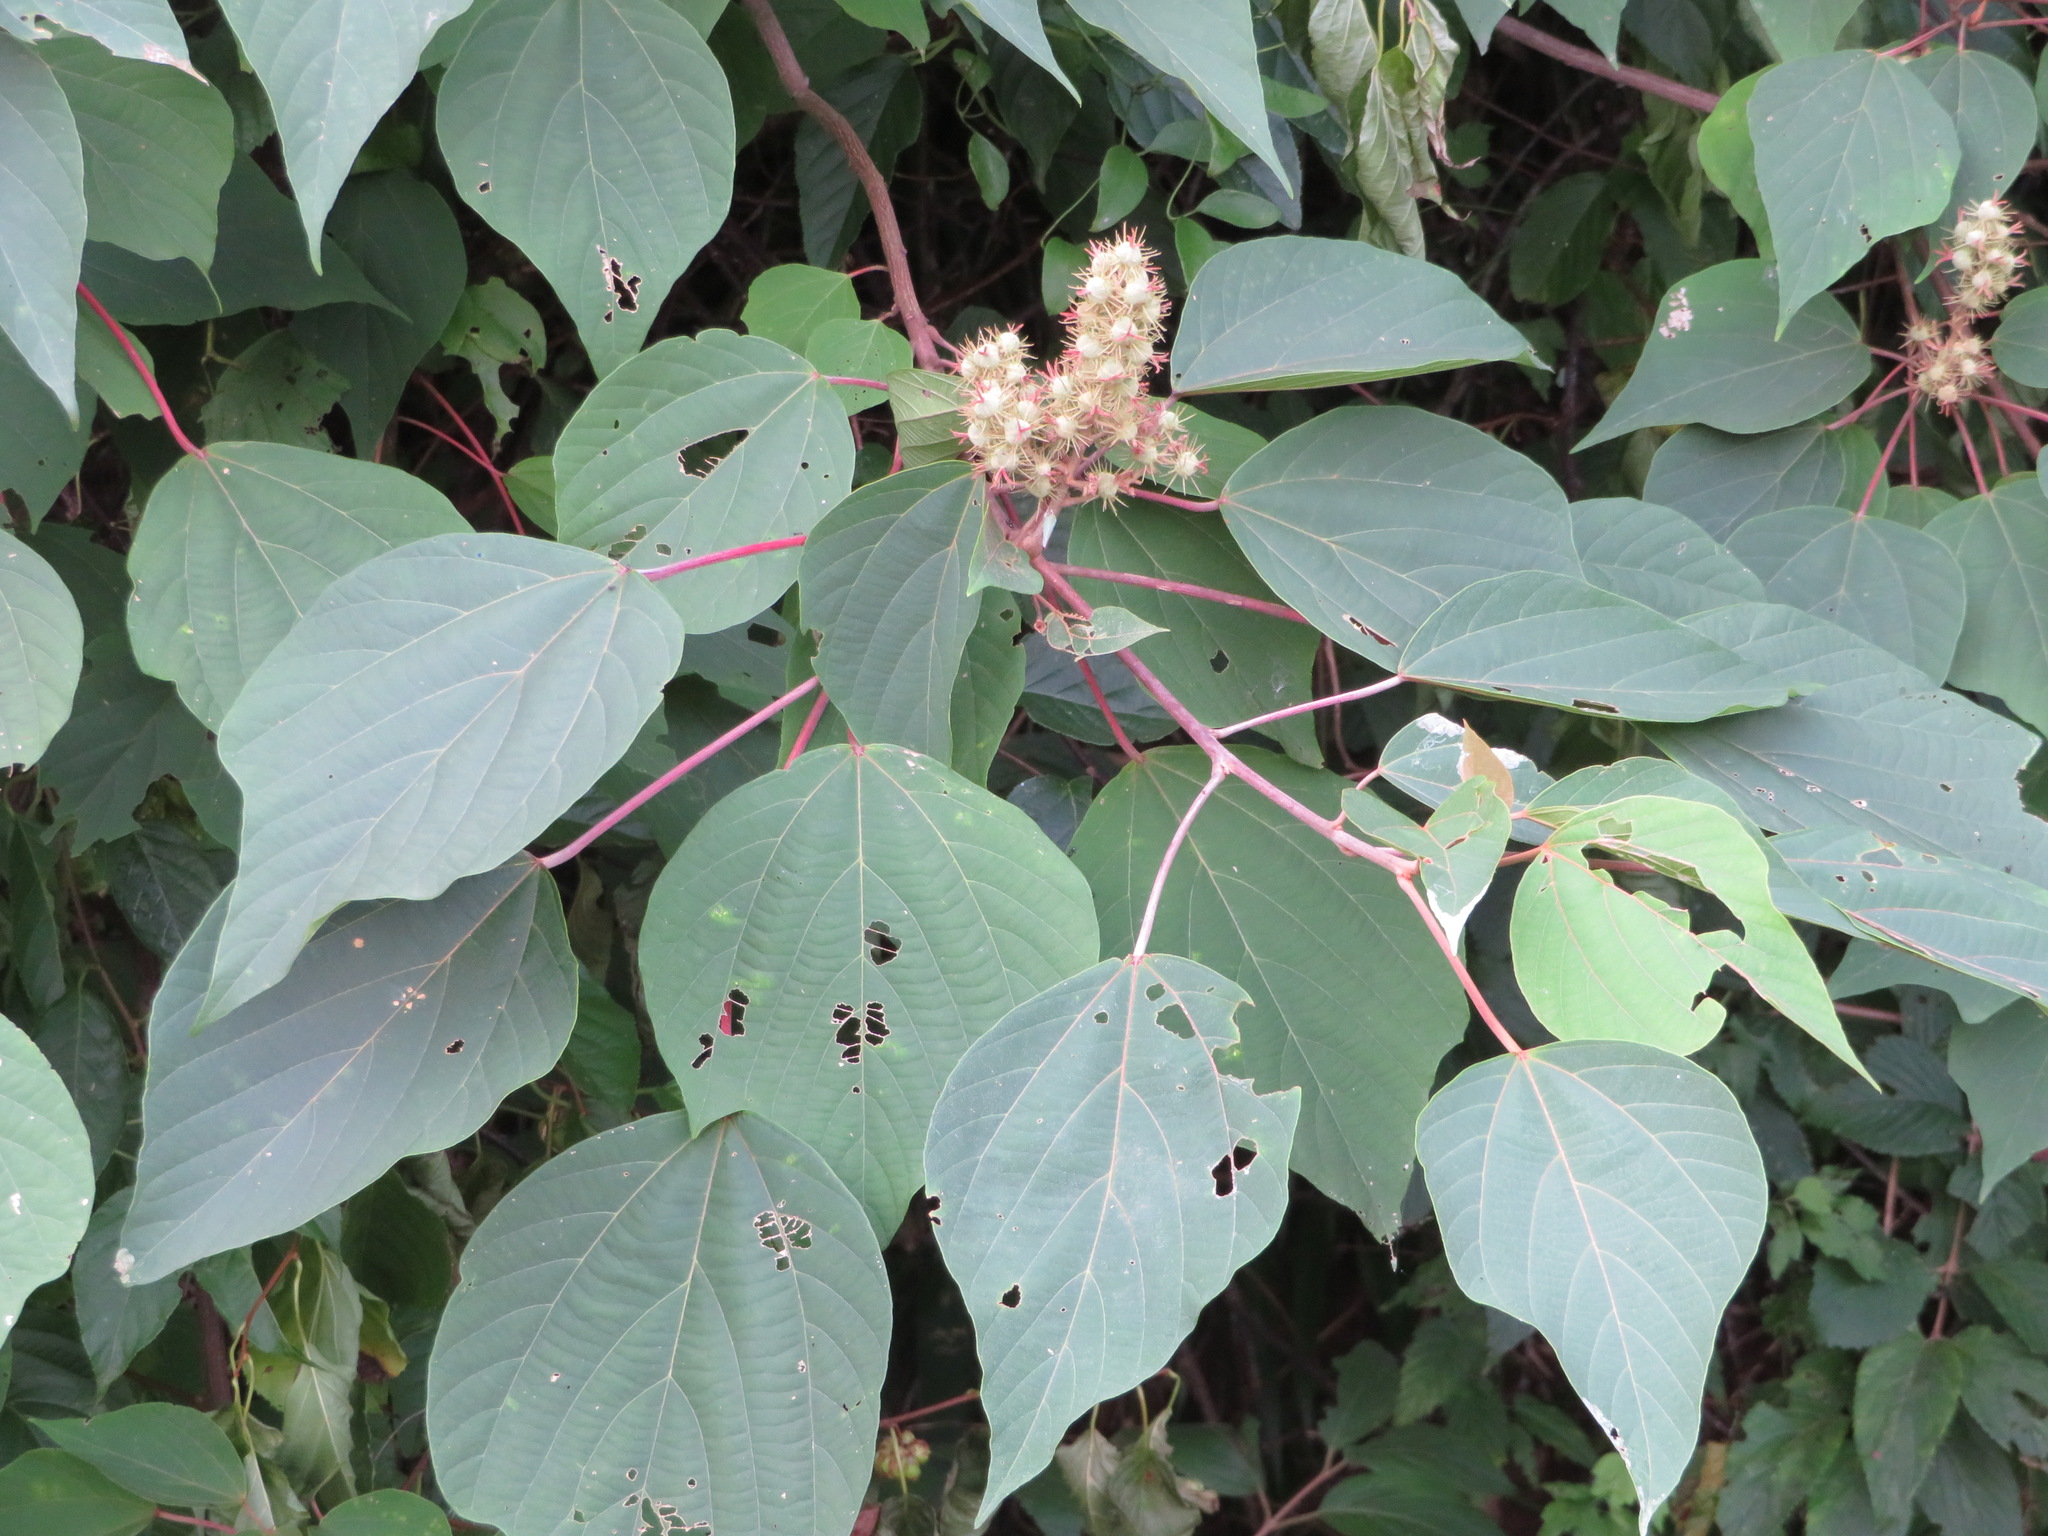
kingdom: Plantae
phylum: Tracheophyta
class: Magnoliopsida
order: Malpighiales
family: Euphorbiaceae
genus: Mallotus
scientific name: Mallotus japonicus
